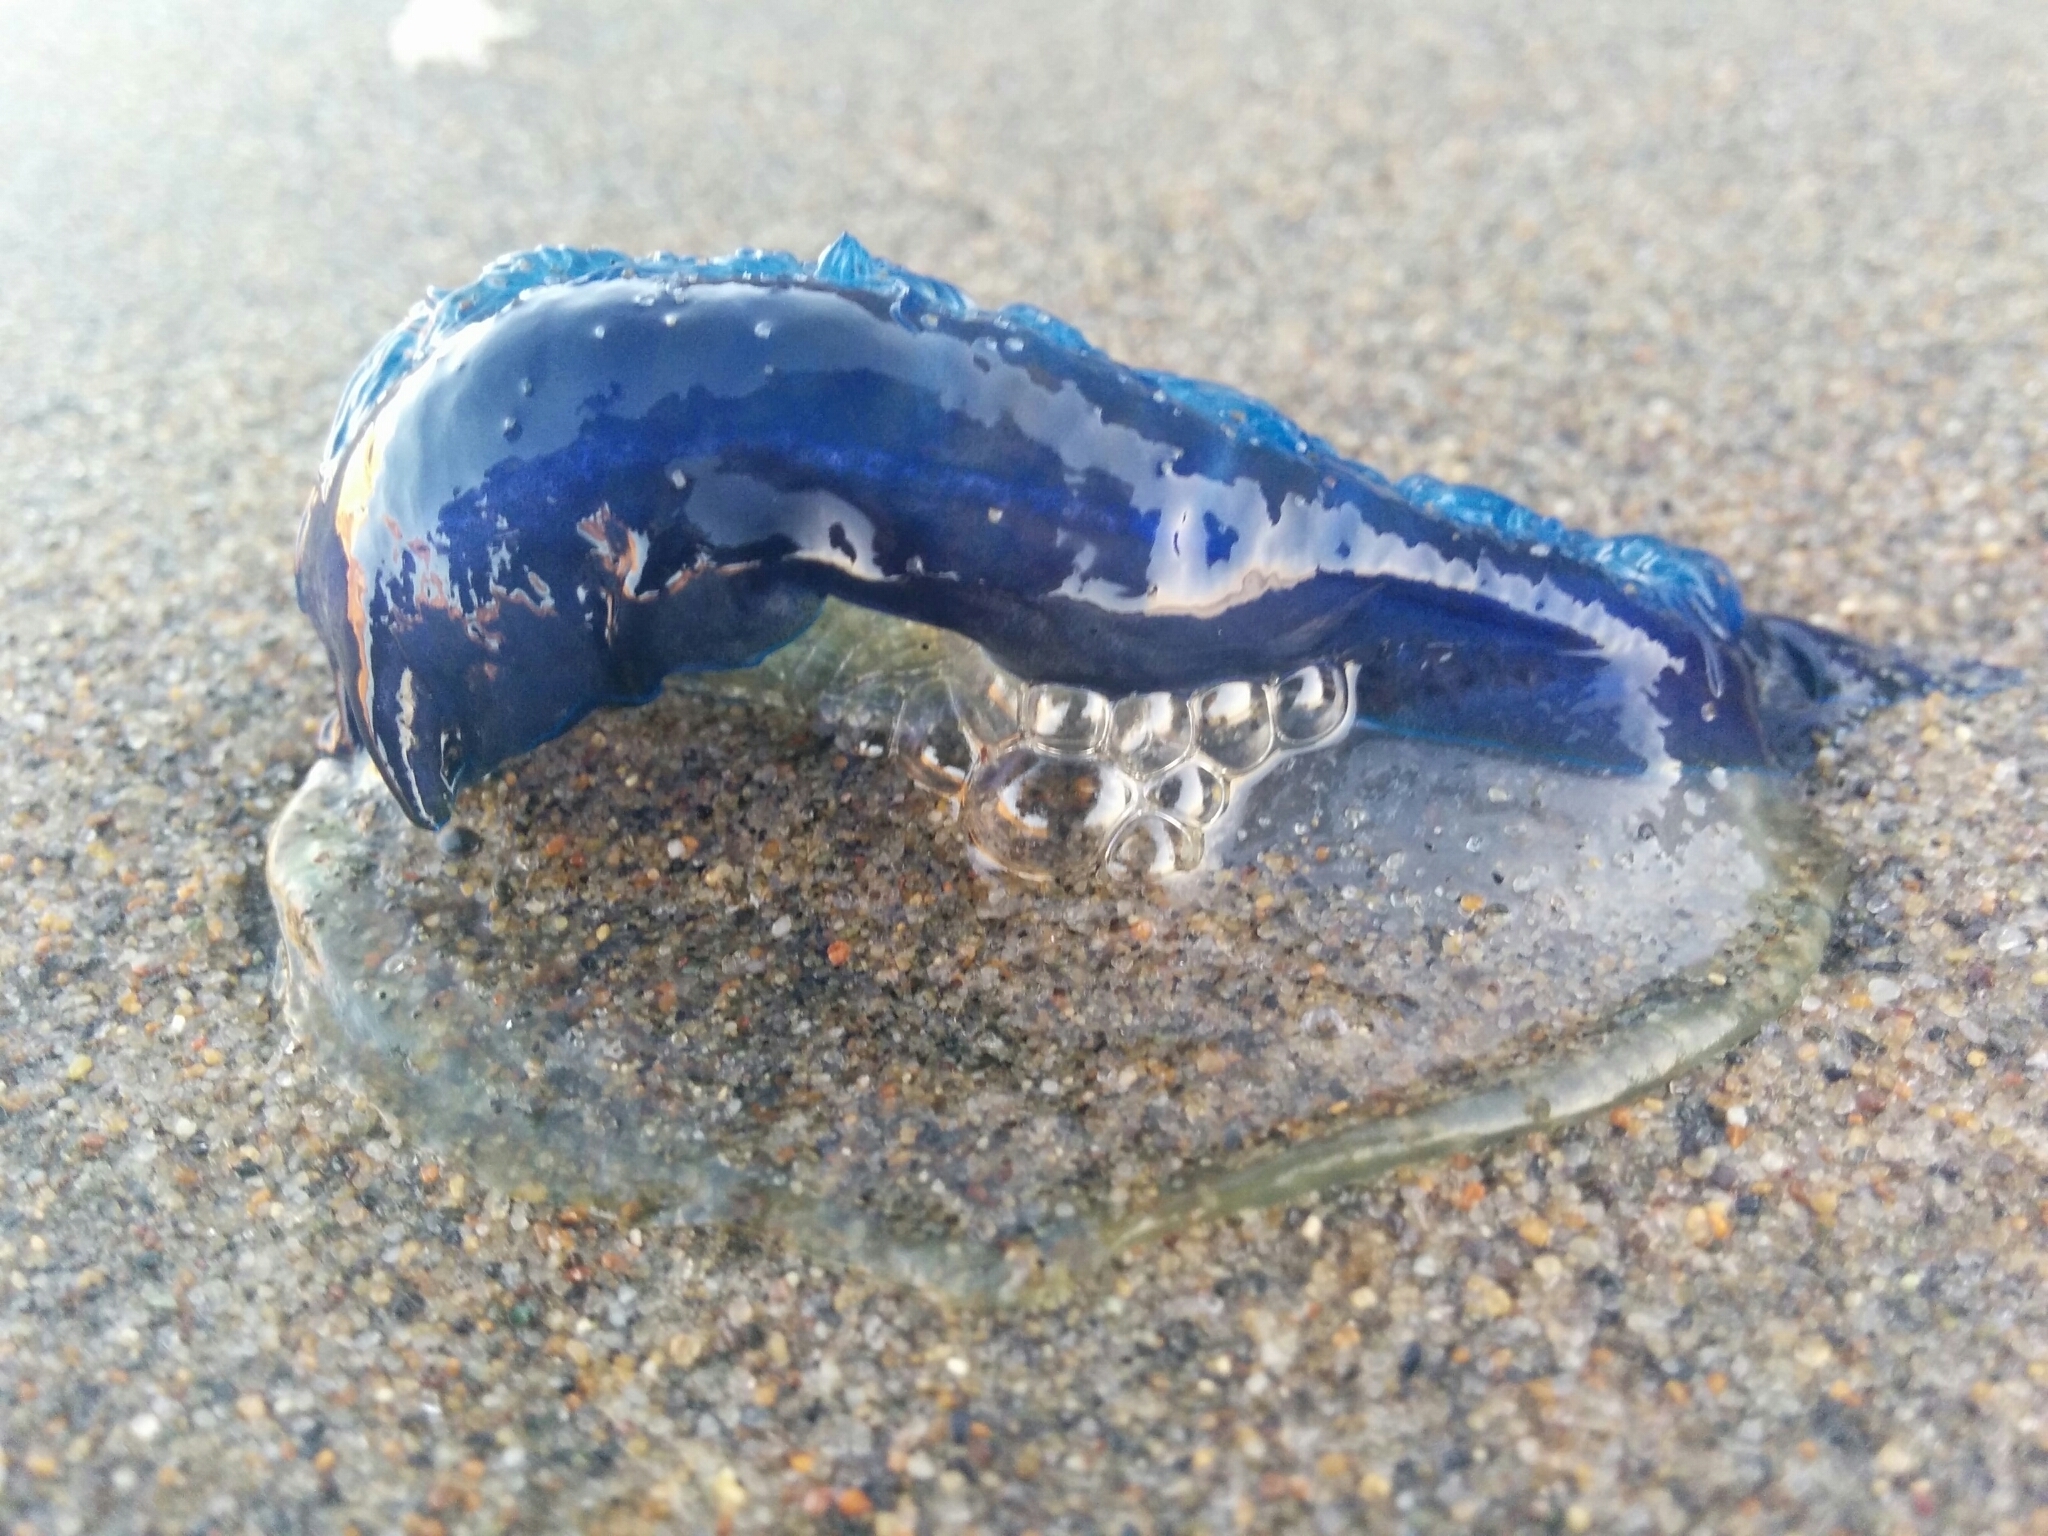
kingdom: Animalia
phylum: Cnidaria
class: Hydrozoa
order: Anthoathecata
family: Porpitidae
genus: Velella
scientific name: Velella velella
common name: By-the-wind-sailor
